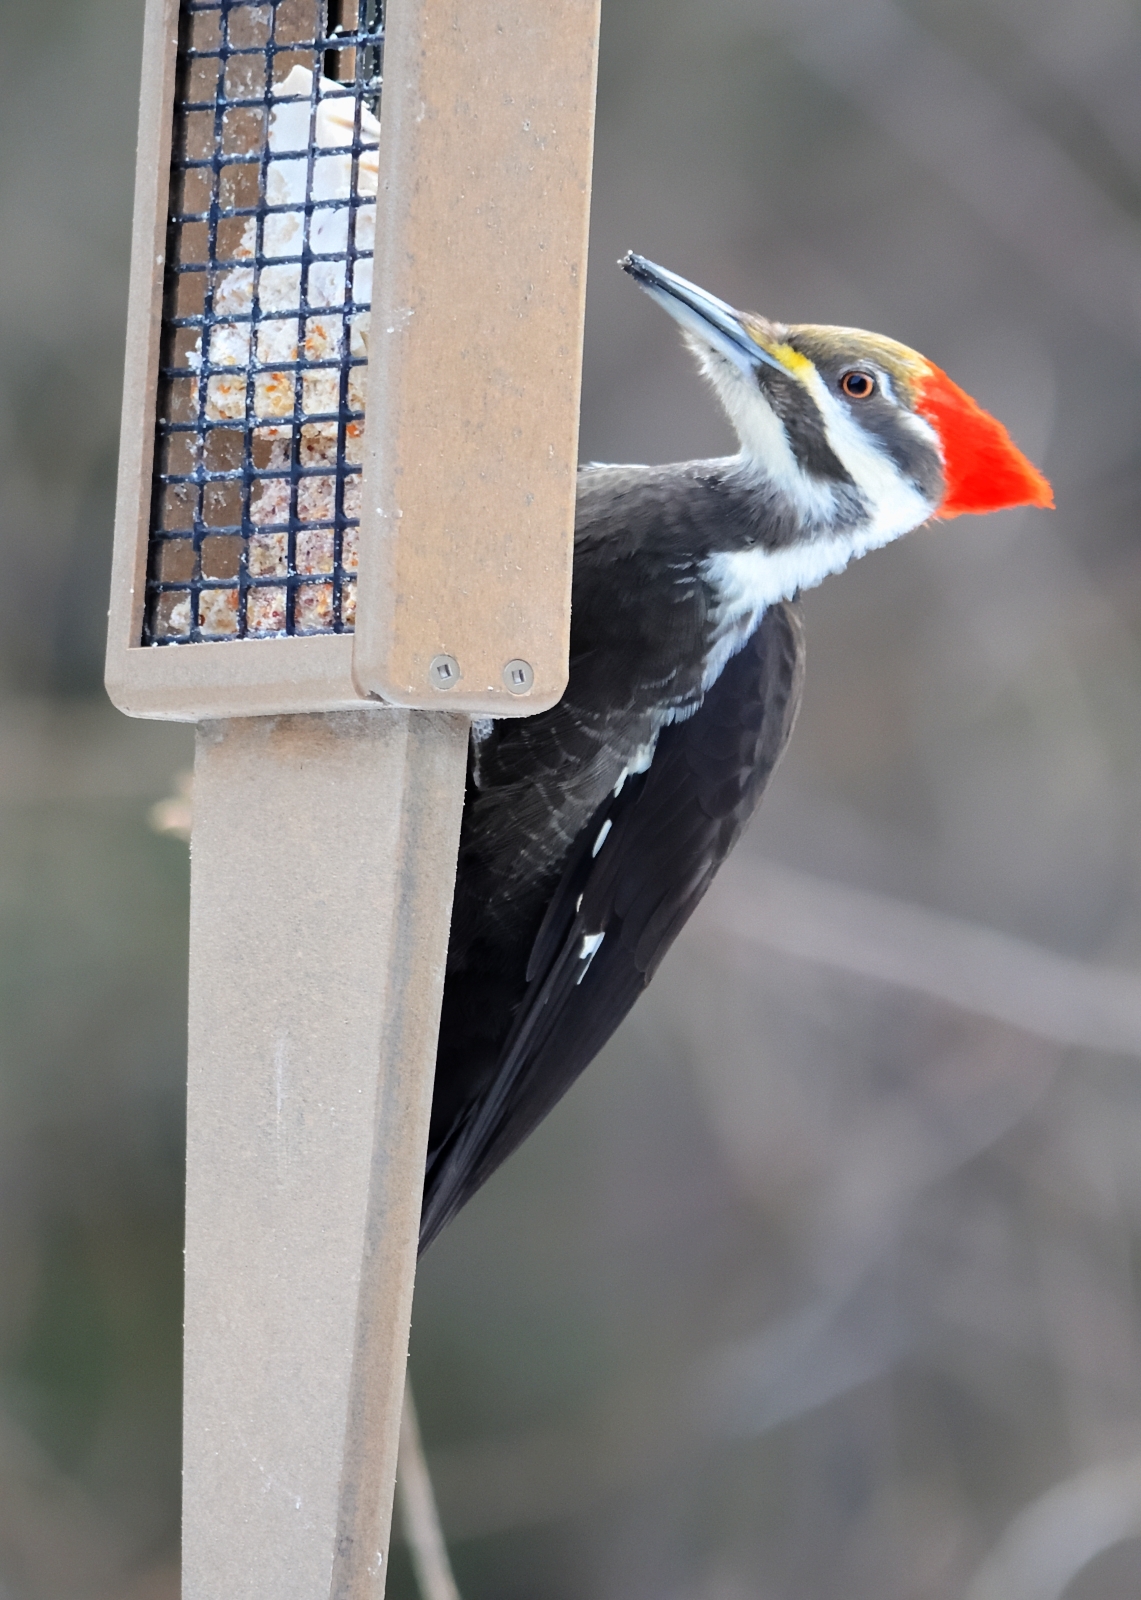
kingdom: Animalia
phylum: Chordata
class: Aves
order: Piciformes
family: Picidae
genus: Dryocopus
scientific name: Dryocopus pileatus
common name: Pileated woodpecker
